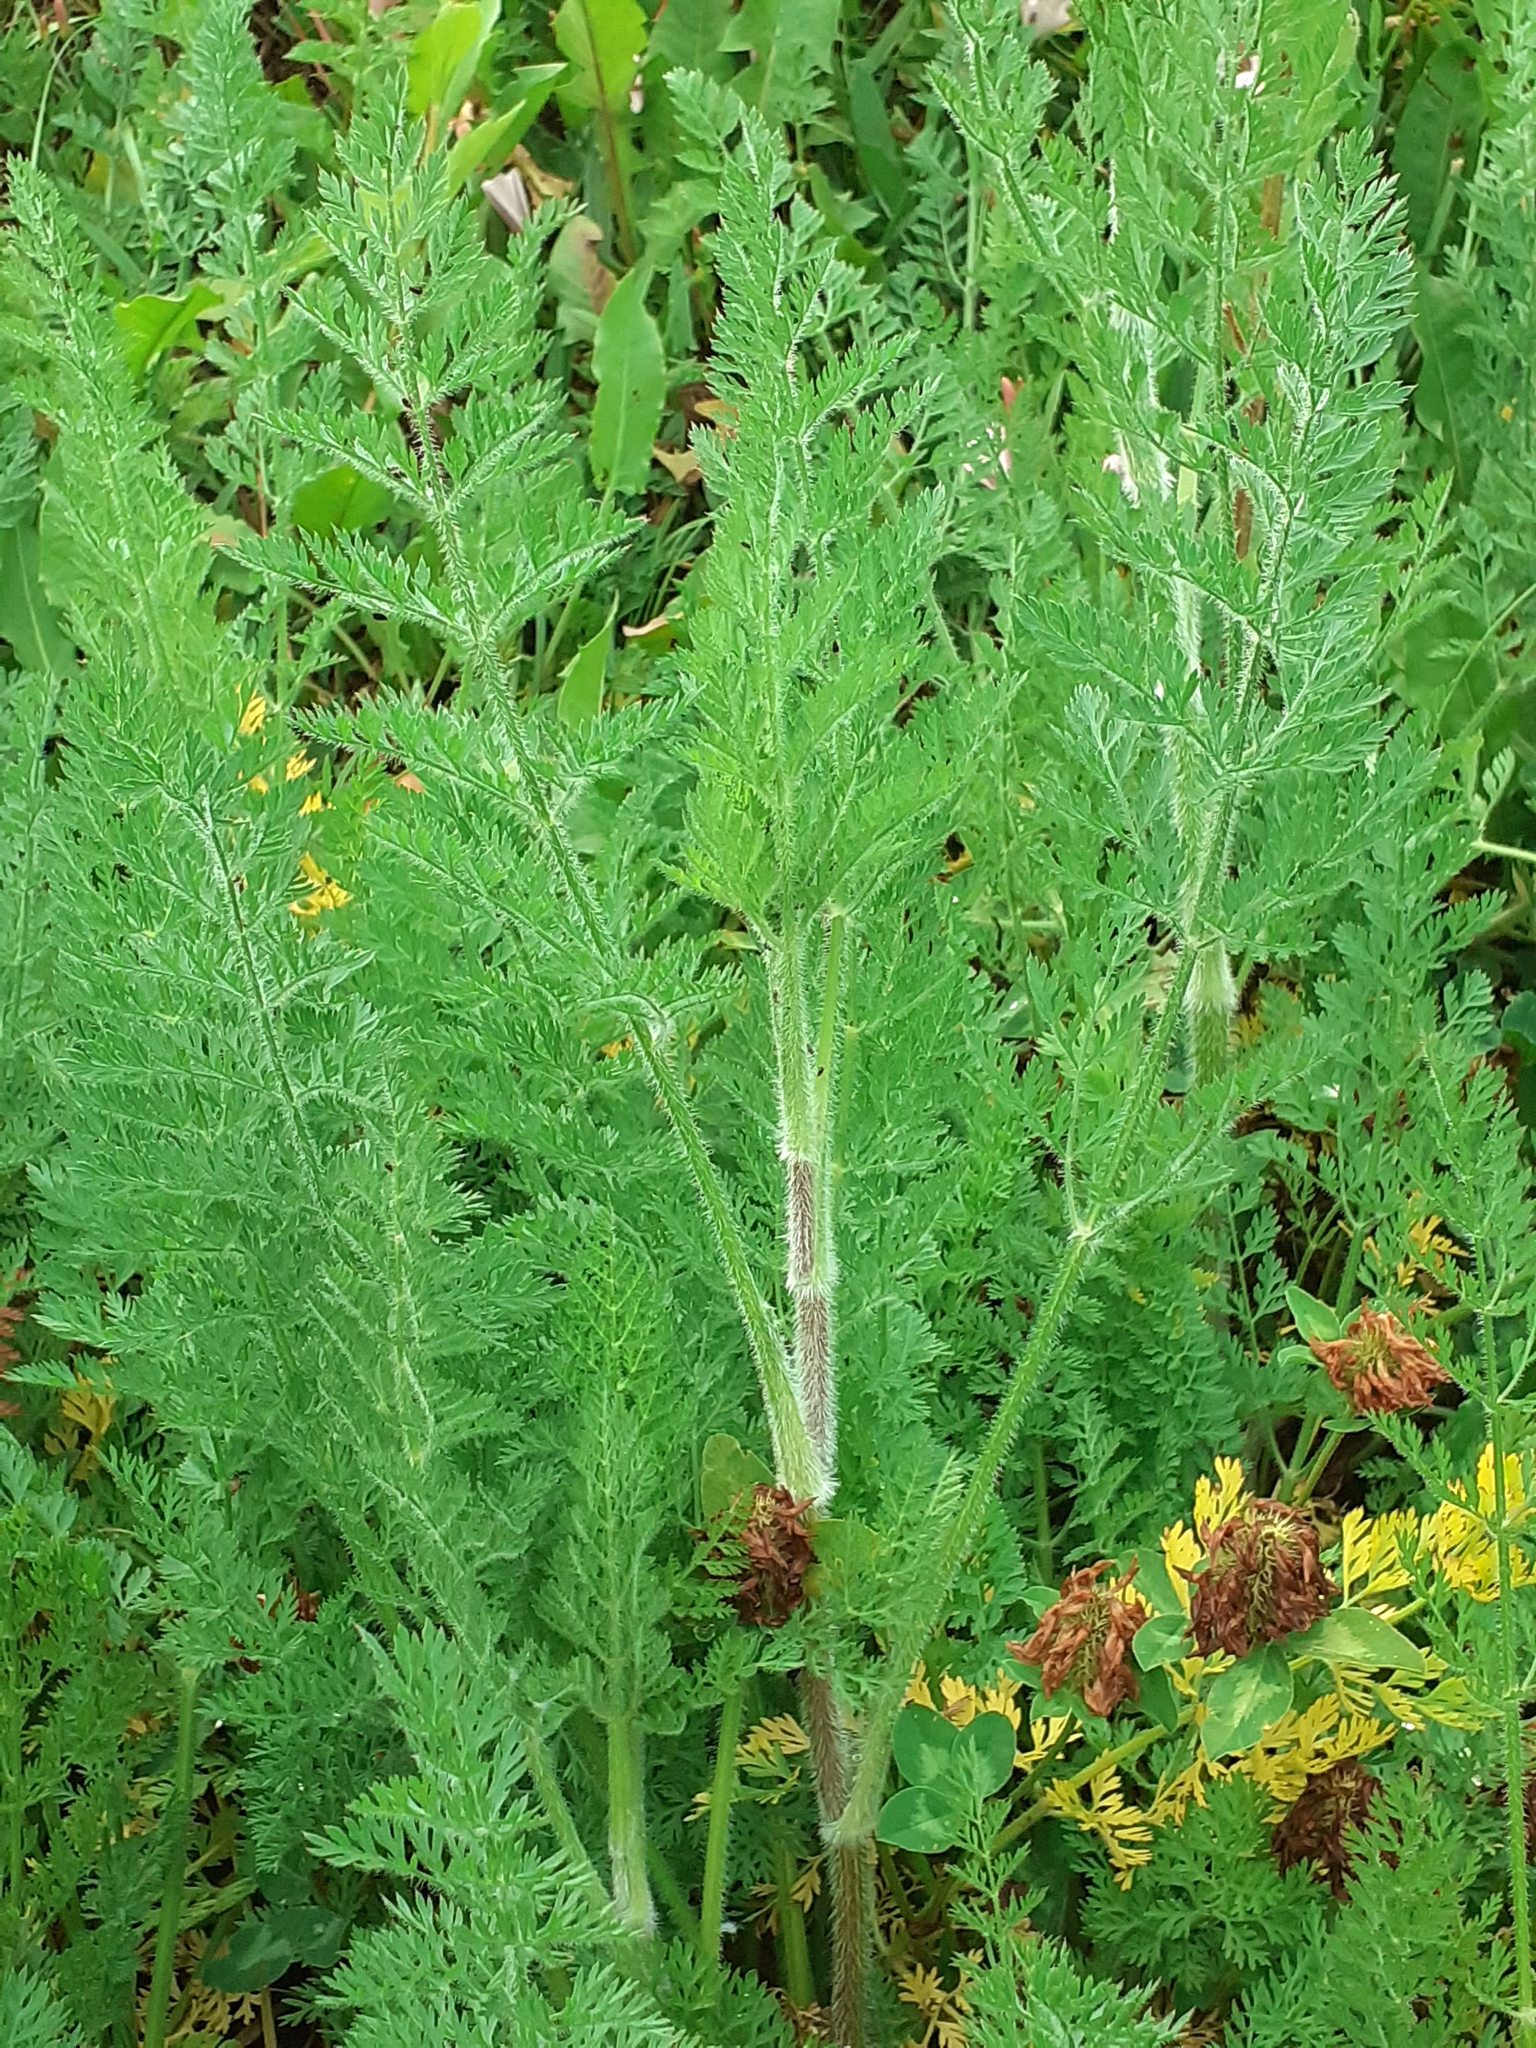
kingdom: Plantae
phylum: Tracheophyta
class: Magnoliopsida
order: Asterales
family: Asteraceae
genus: Achillea
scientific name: Achillea millefolium
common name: Yarrow
